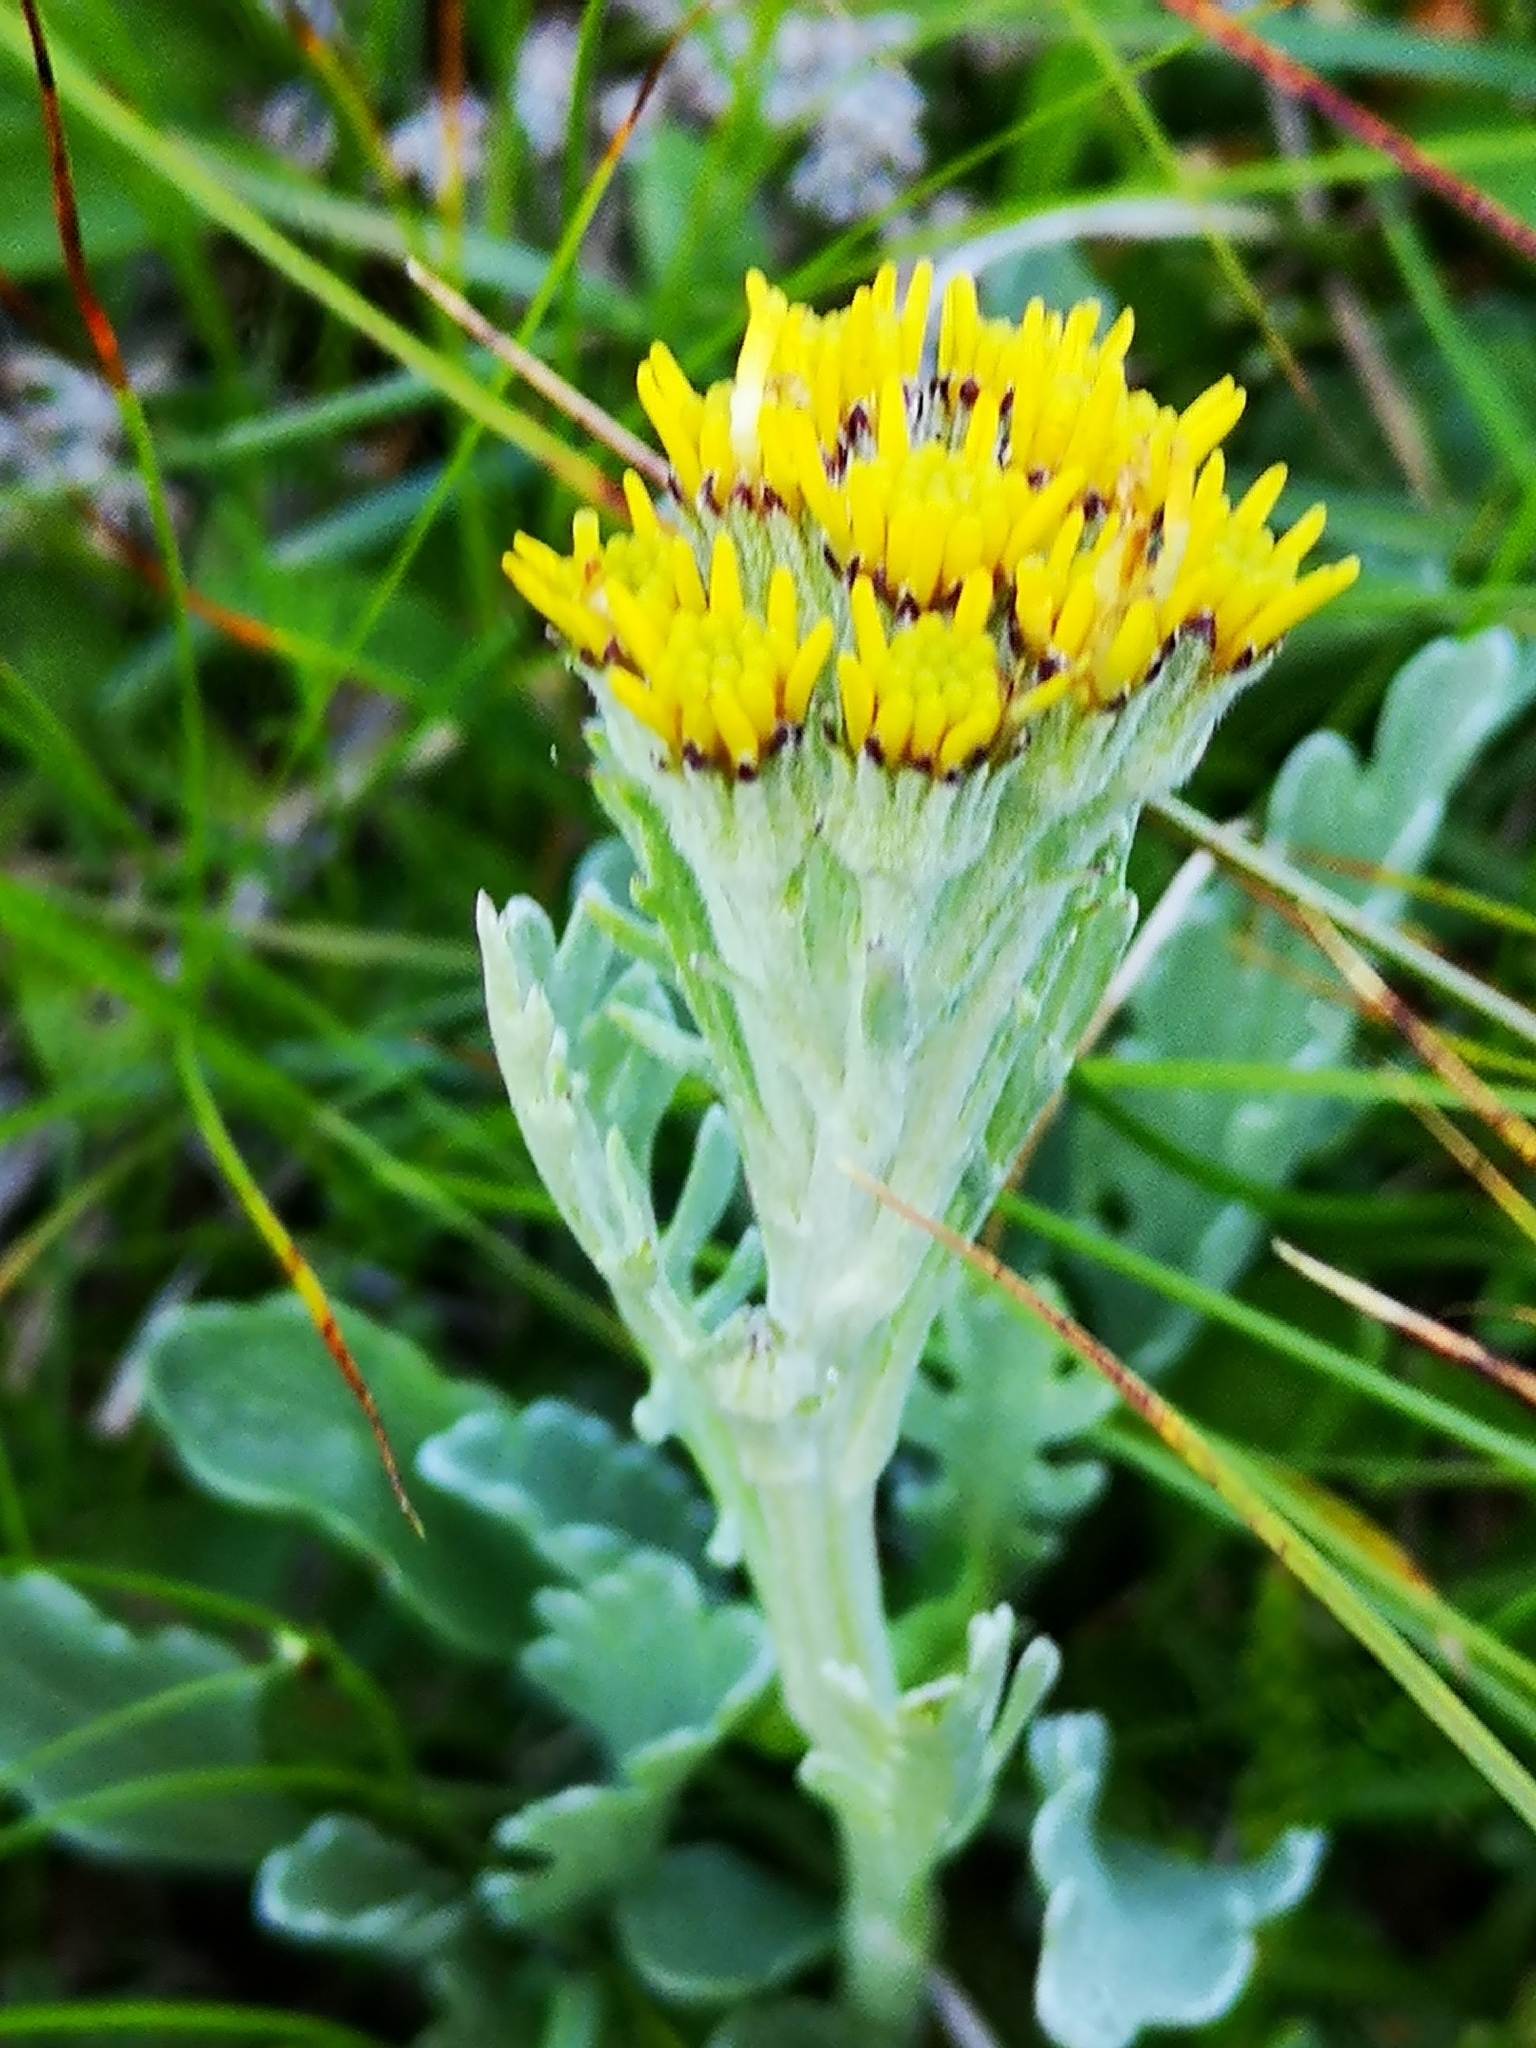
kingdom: Plantae
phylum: Tracheophyta
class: Magnoliopsida
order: Asterales
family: Asteraceae
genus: Jacobaea
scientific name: Jacobaea carniolica
